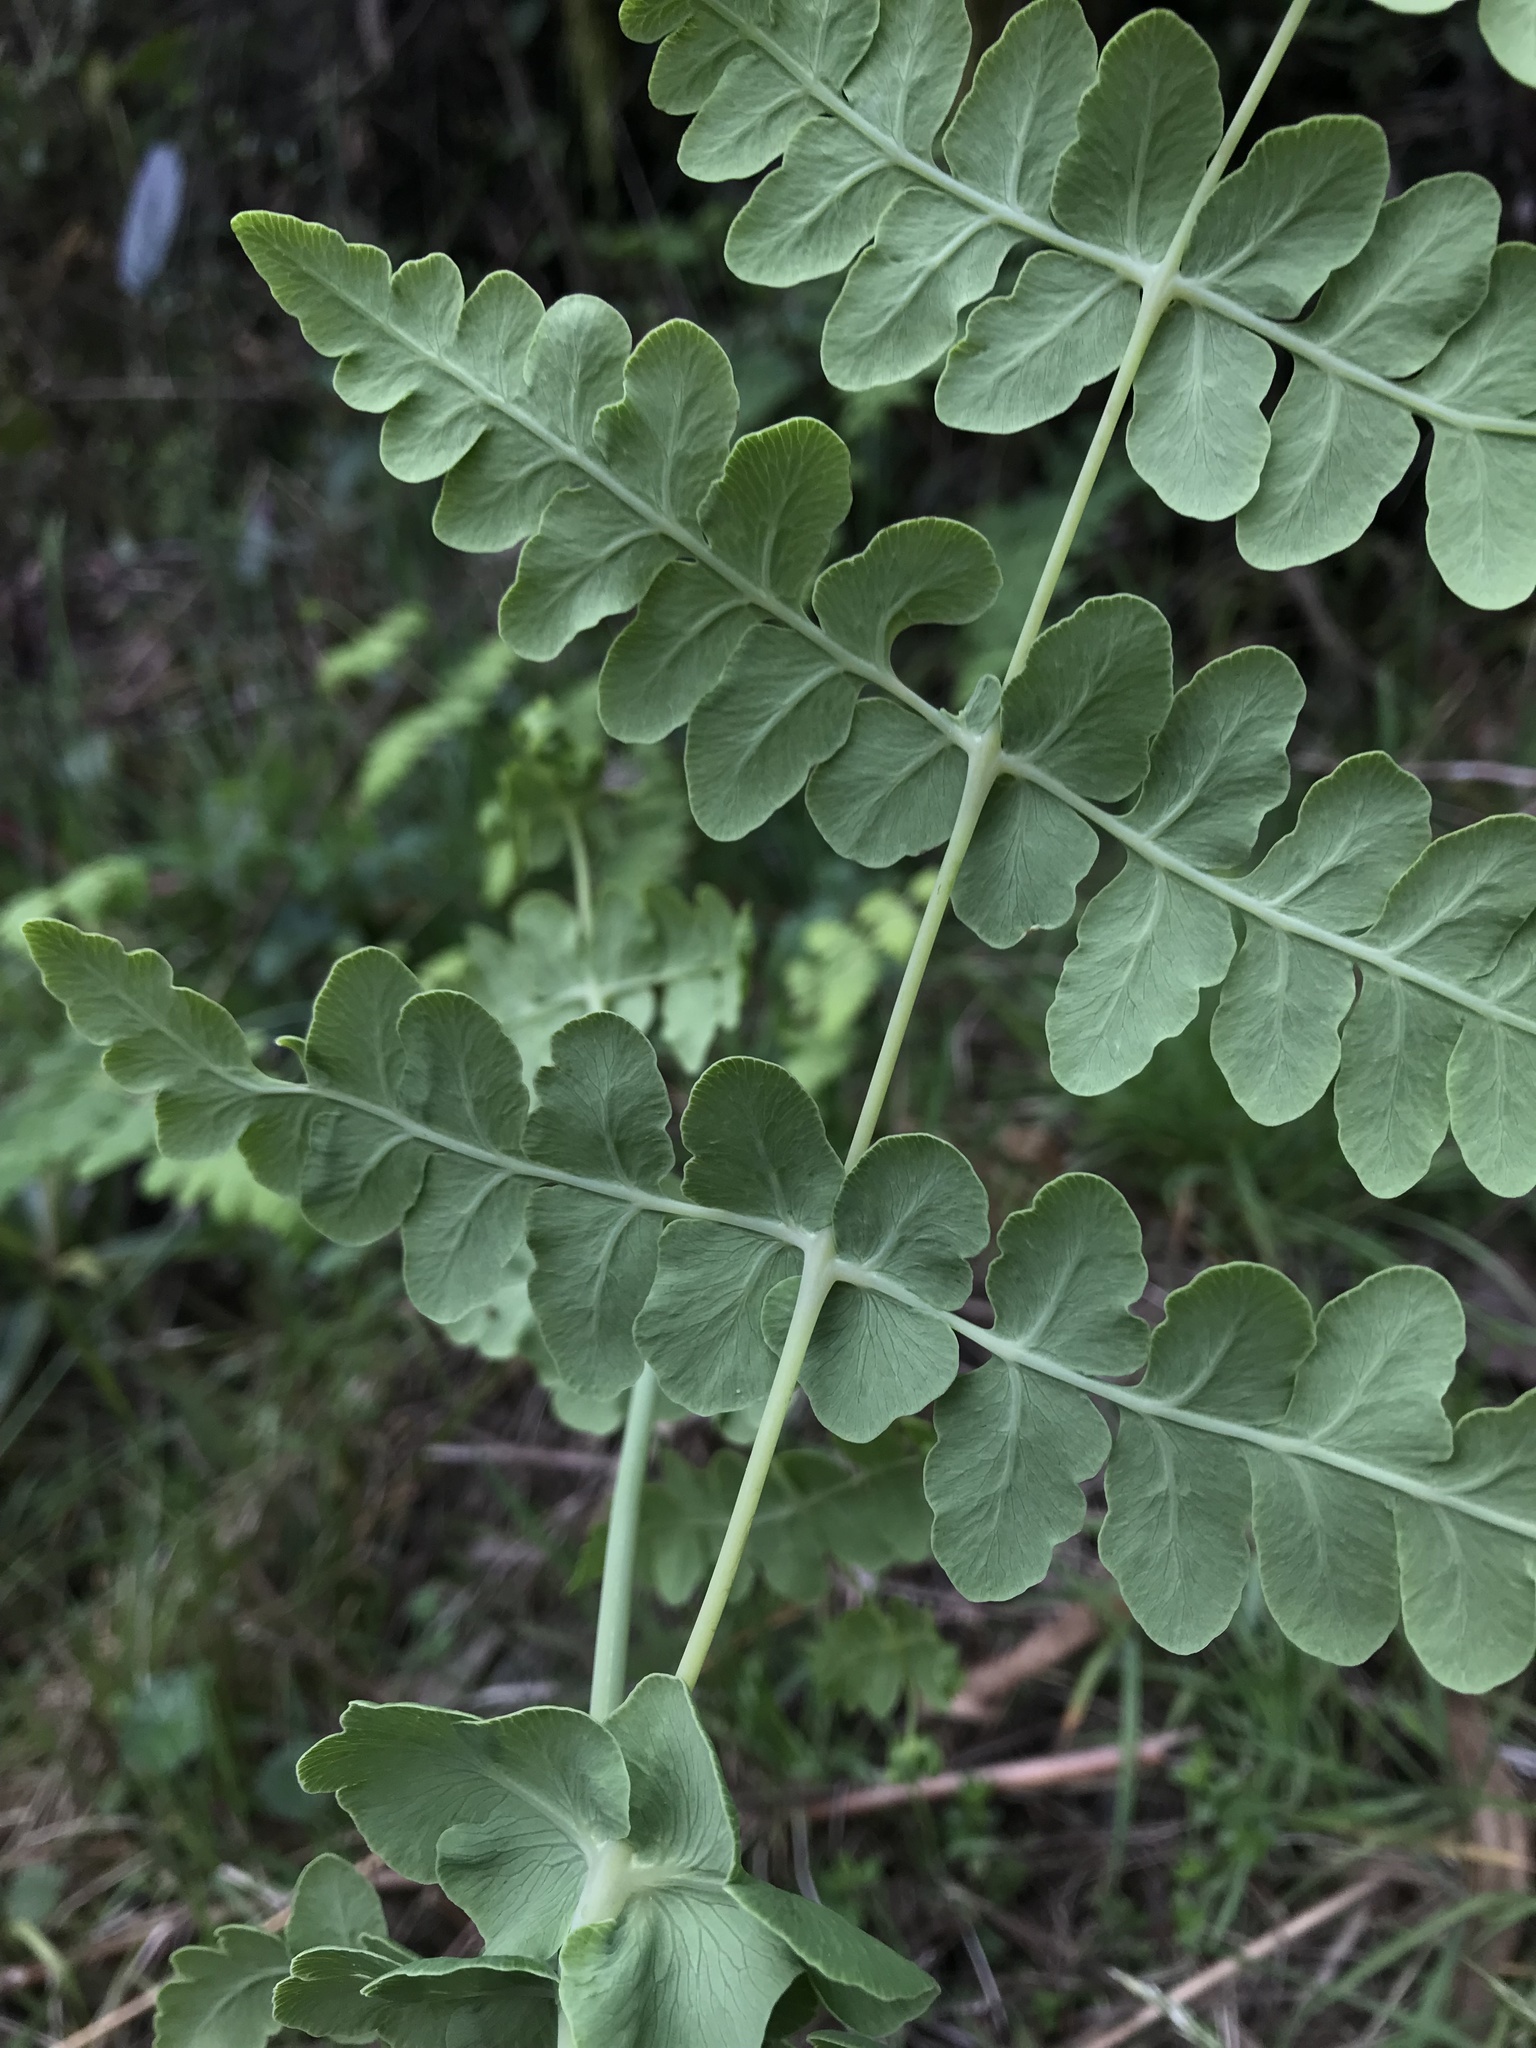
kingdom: Plantae
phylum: Tracheophyta
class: Polypodiopsida
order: Polypodiales
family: Dennstaedtiaceae
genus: Histiopteris
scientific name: Histiopteris incisa
